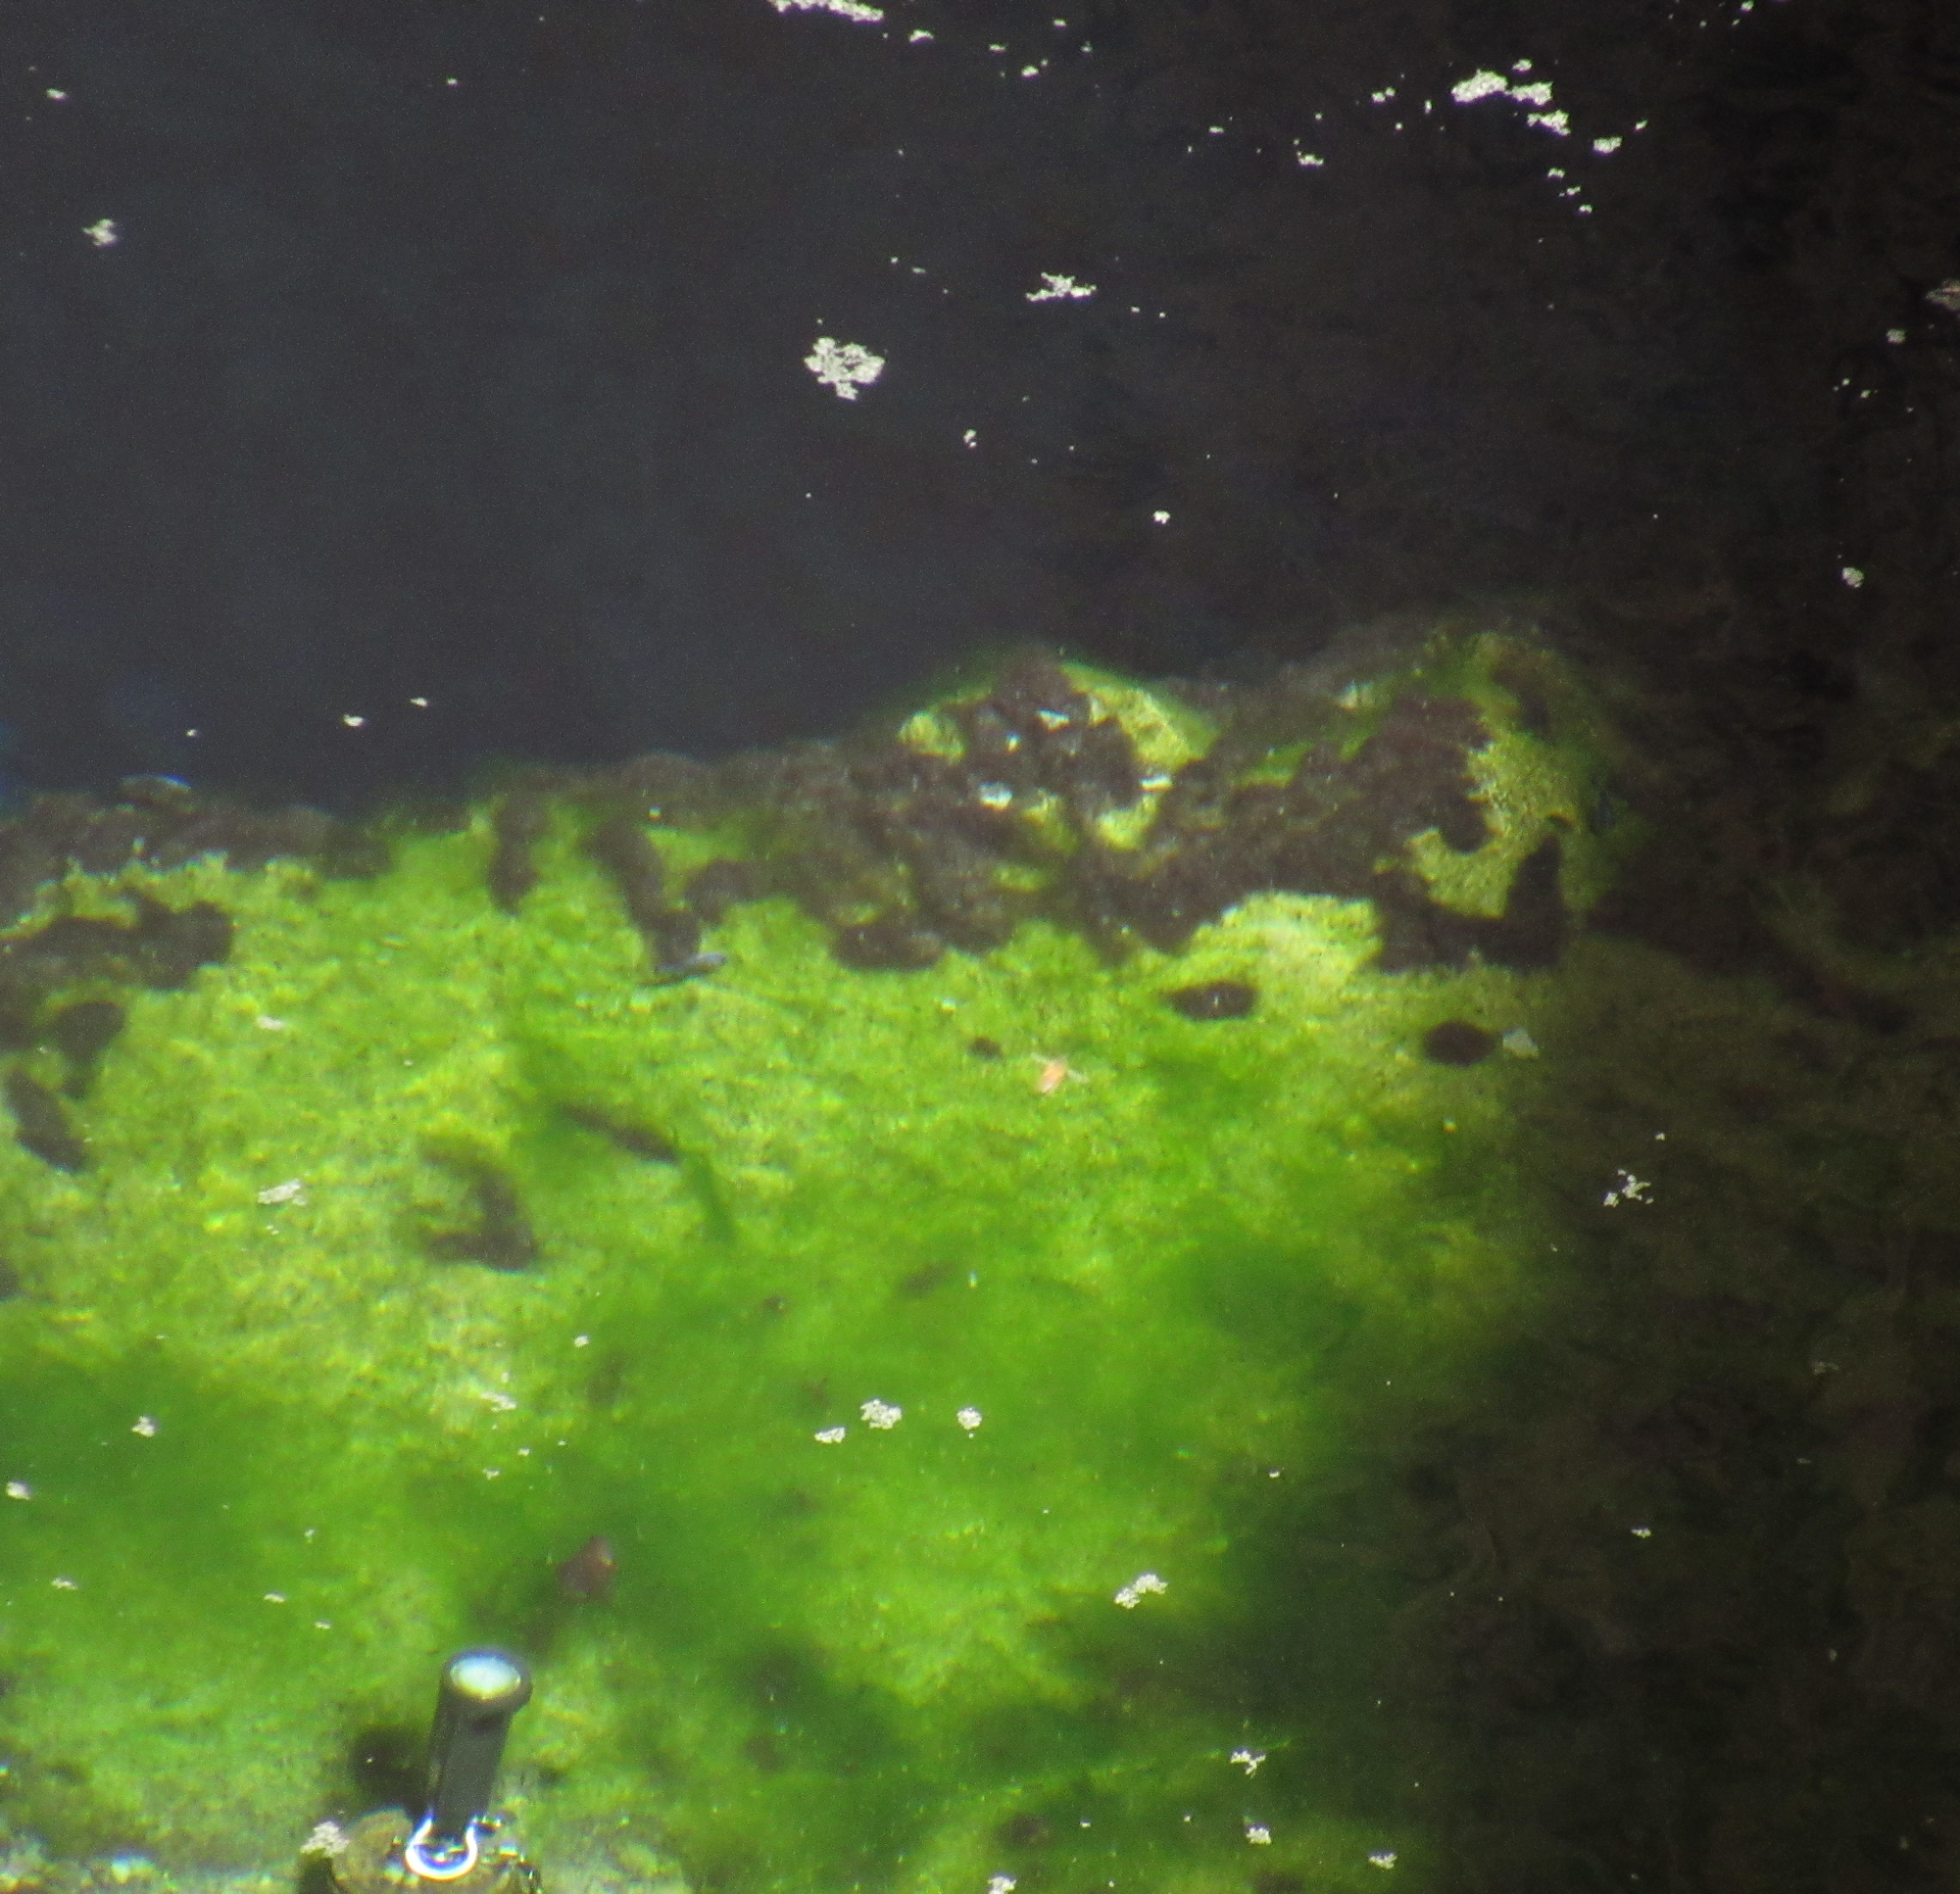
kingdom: Animalia
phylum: Chordata
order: Cyprinodontiformes
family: Cyprinodontidae
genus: Cyprinodon
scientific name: Cyprinodon diabolis
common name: Devils hole pupfish
